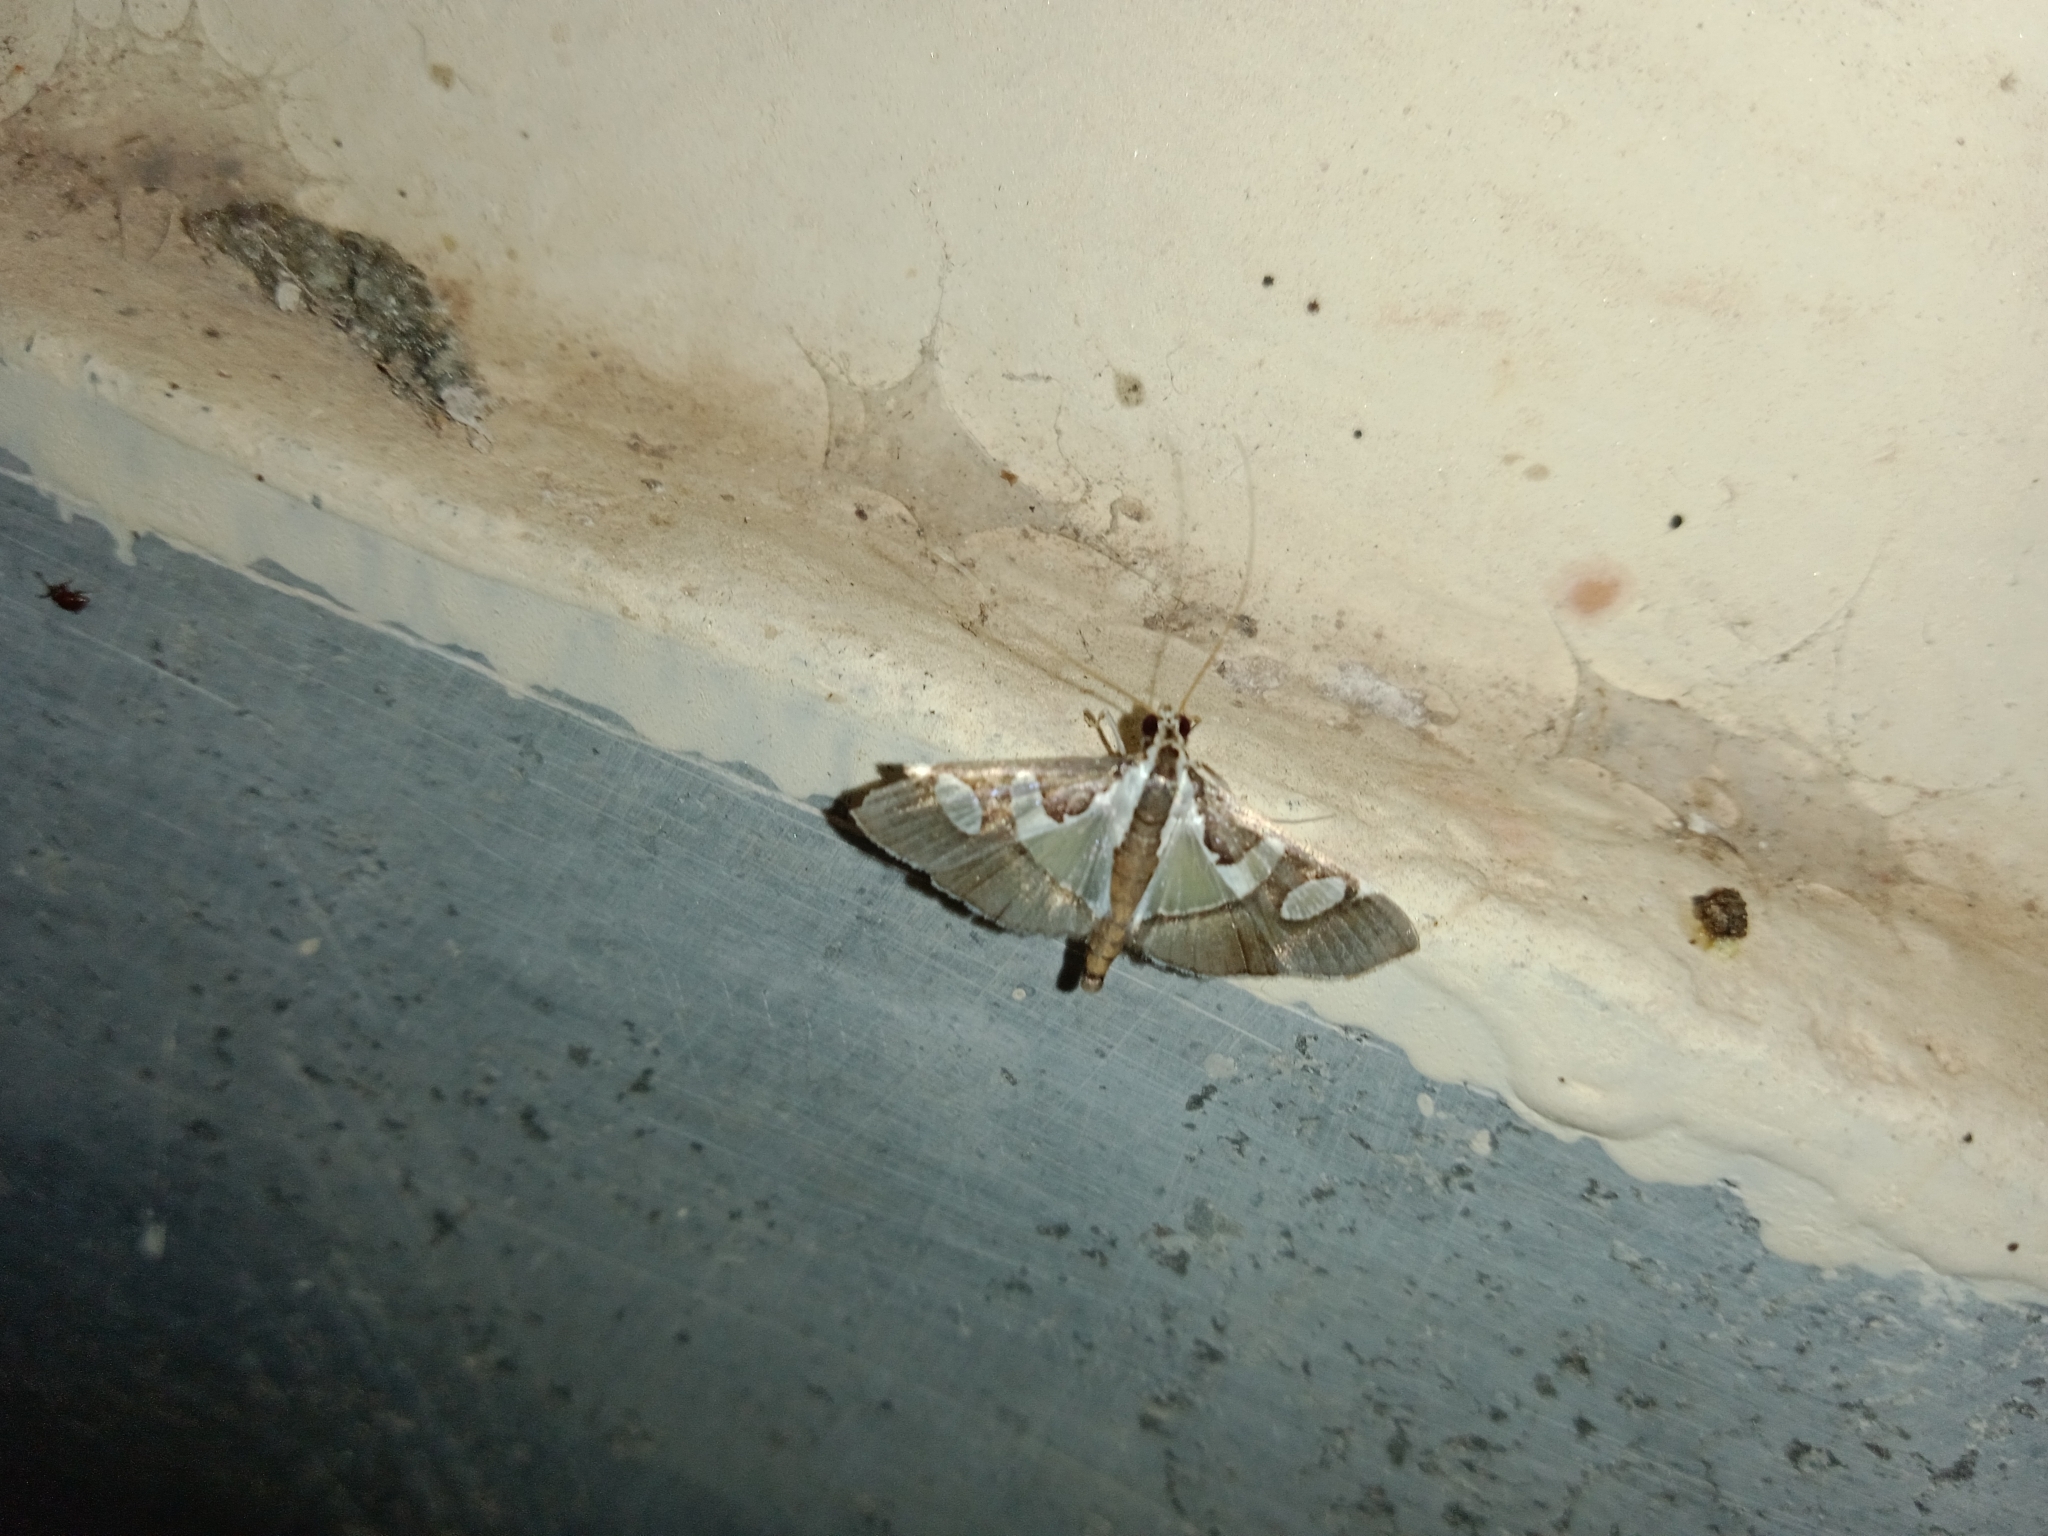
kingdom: Animalia
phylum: Arthropoda
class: Insecta
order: Lepidoptera
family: Crambidae
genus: Glyphodes
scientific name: Glyphodes bicolor
